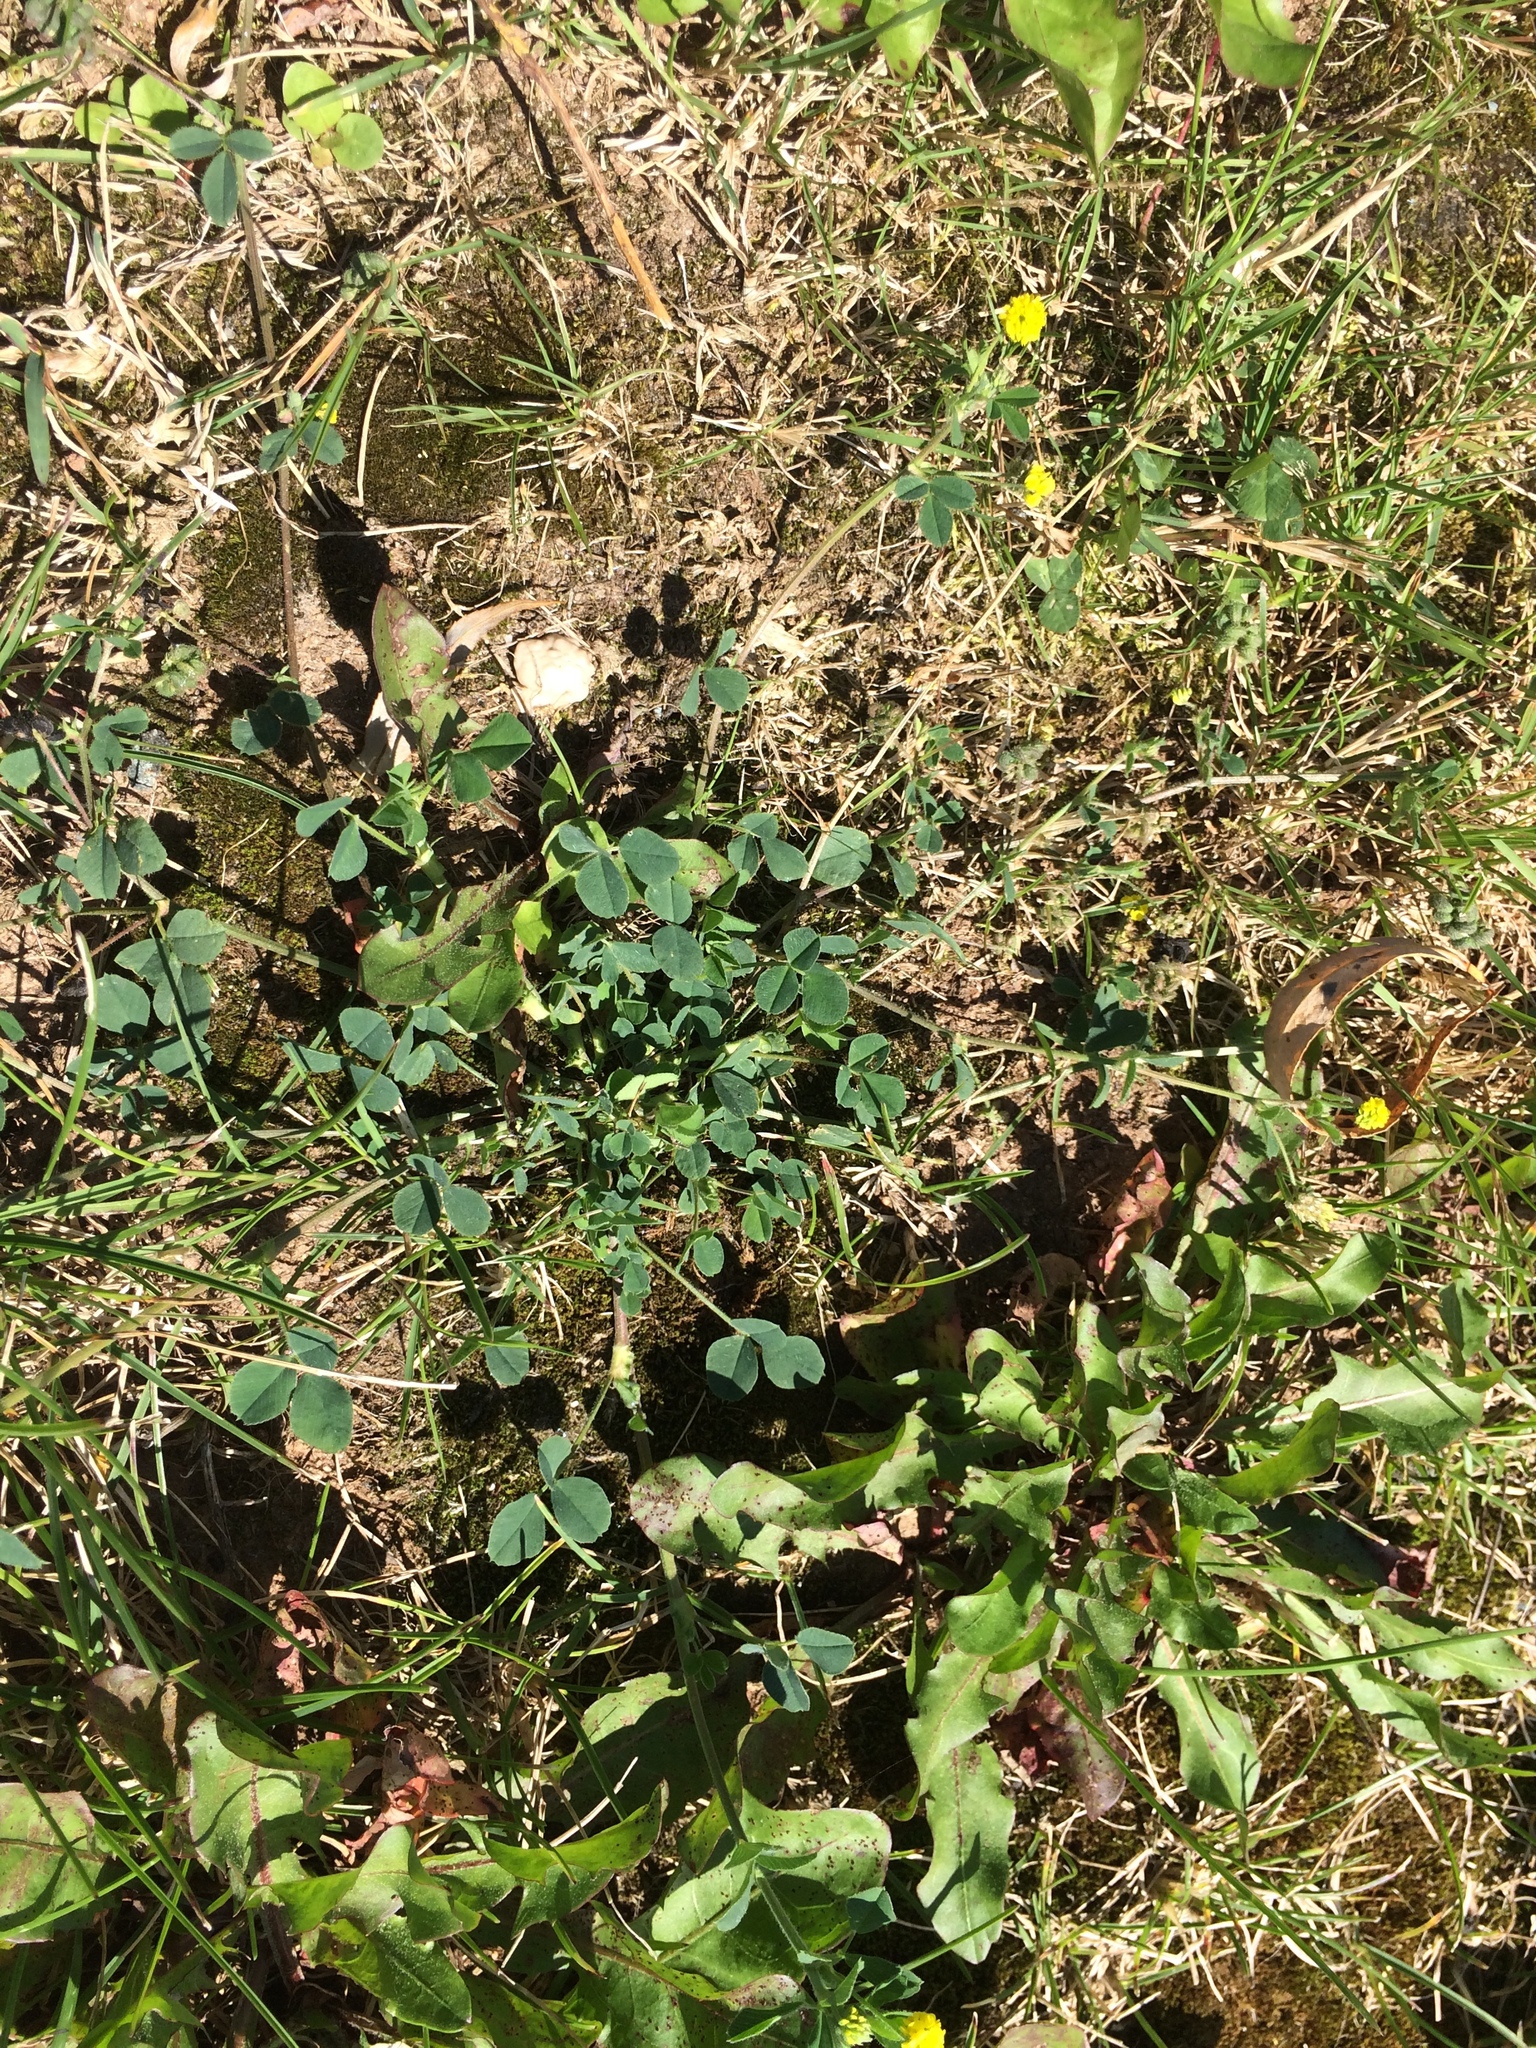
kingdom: Plantae
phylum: Tracheophyta
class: Magnoliopsida
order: Fabales
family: Fabaceae
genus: Medicago
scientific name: Medicago lupulina
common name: Black medick
